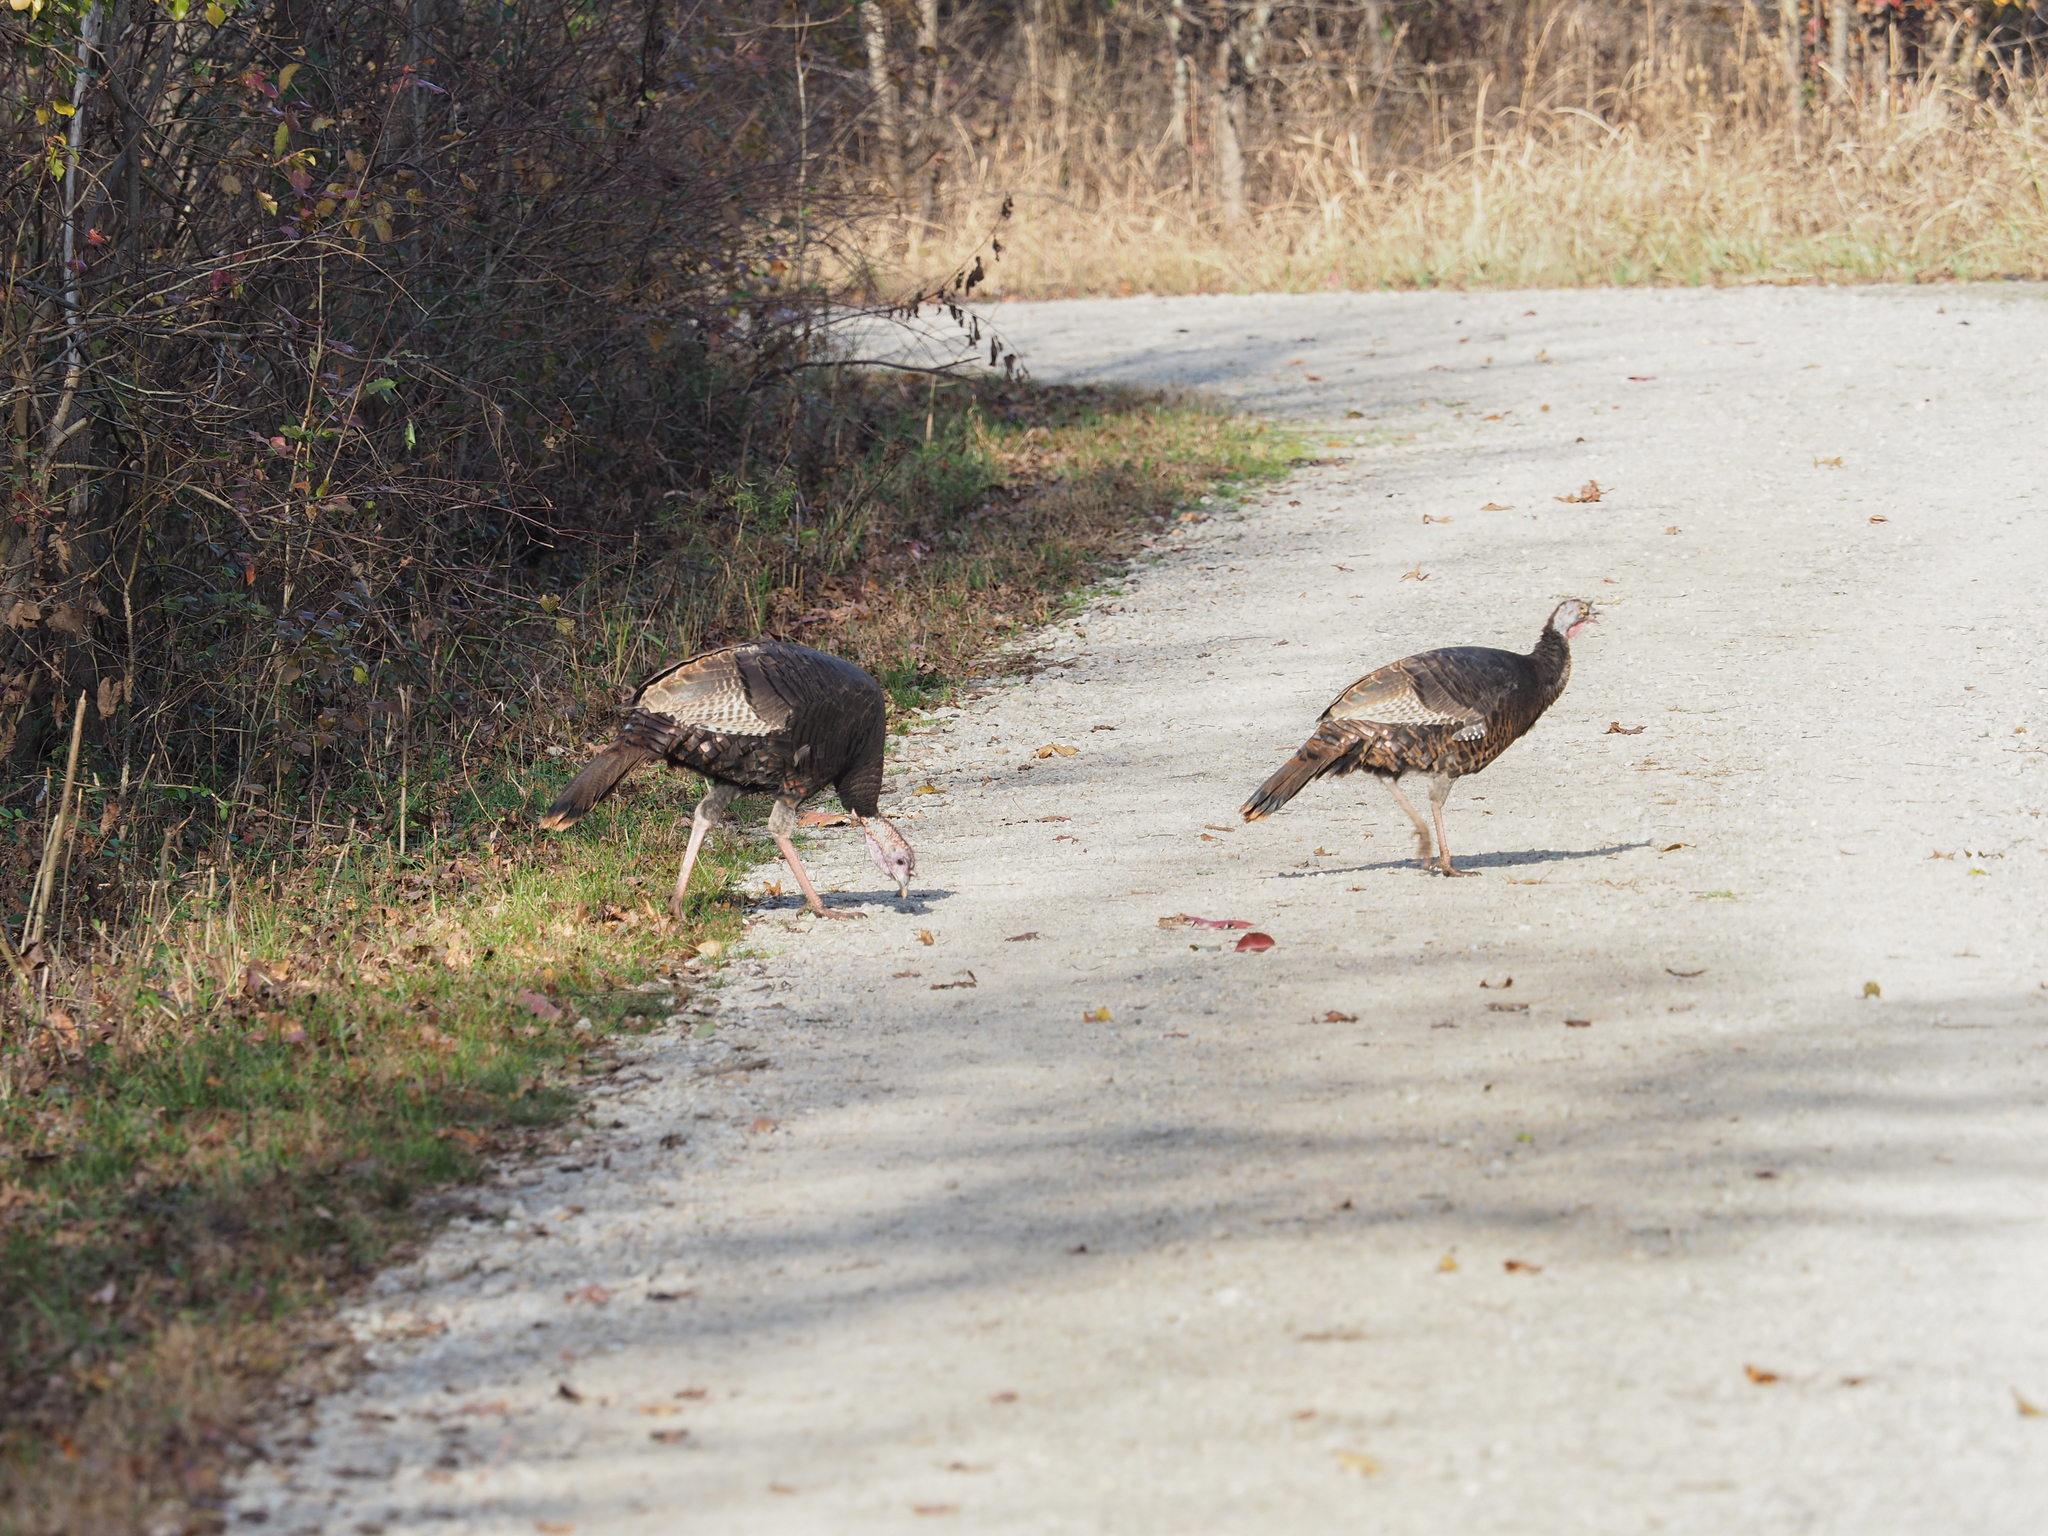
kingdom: Animalia
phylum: Chordata
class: Aves
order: Galliformes
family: Phasianidae
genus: Meleagris
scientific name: Meleagris gallopavo
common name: Wild turkey
